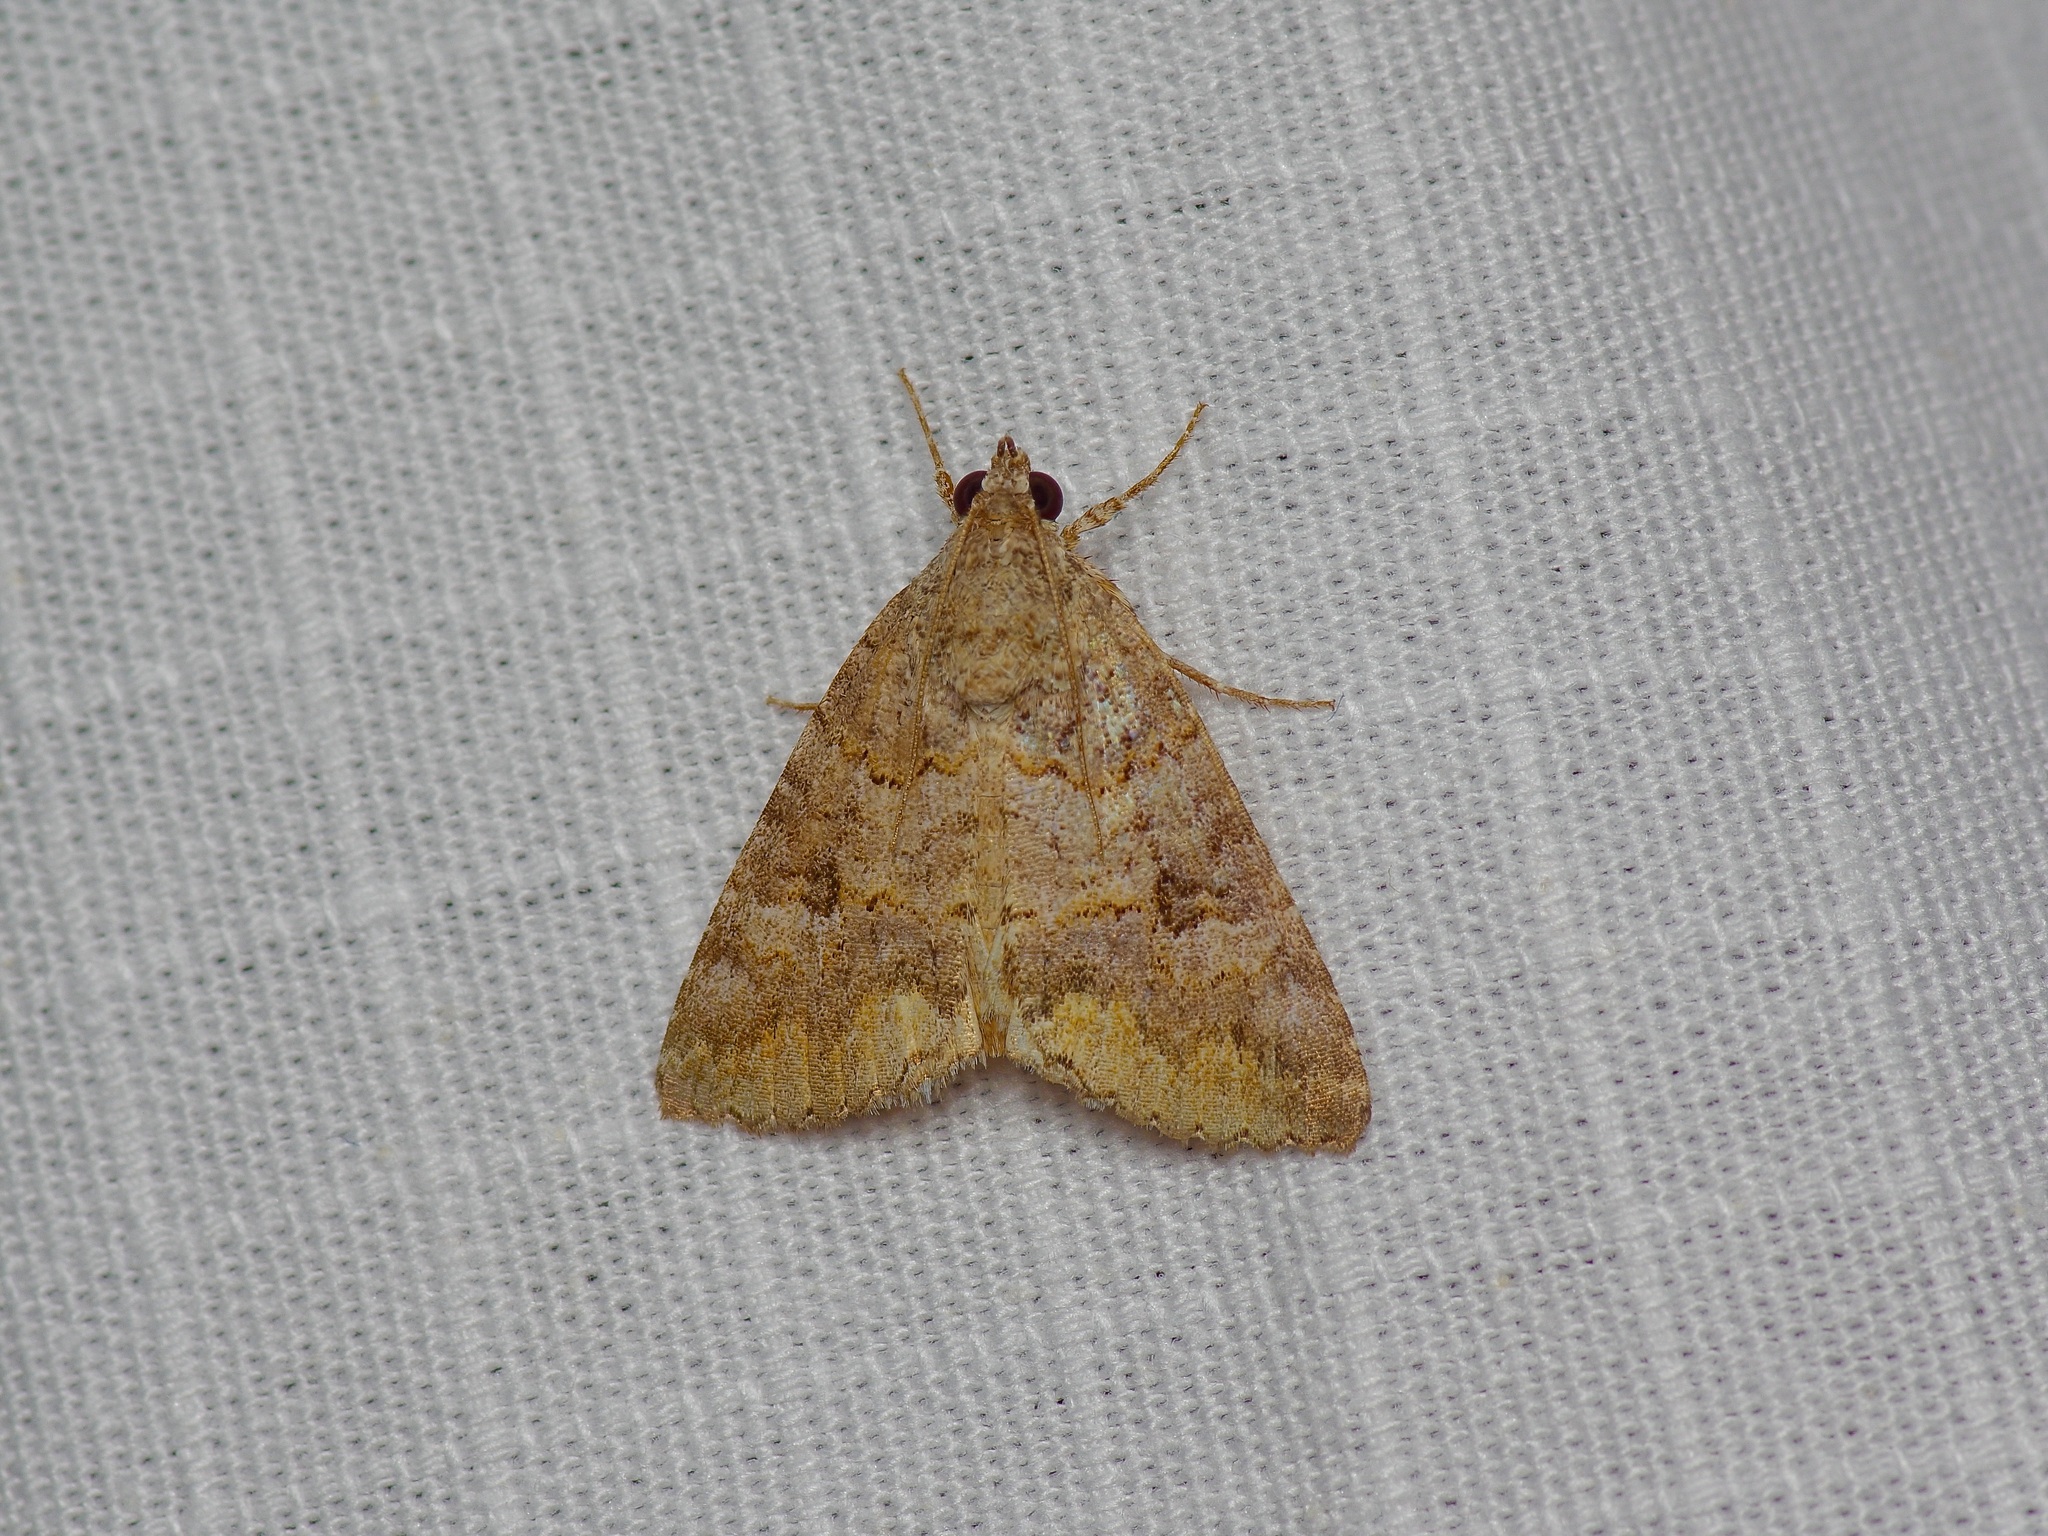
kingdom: Animalia
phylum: Arthropoda
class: Insecta
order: Lepidoptera
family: Erebidae
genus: Eubolina
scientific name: Eubolina impartialis
